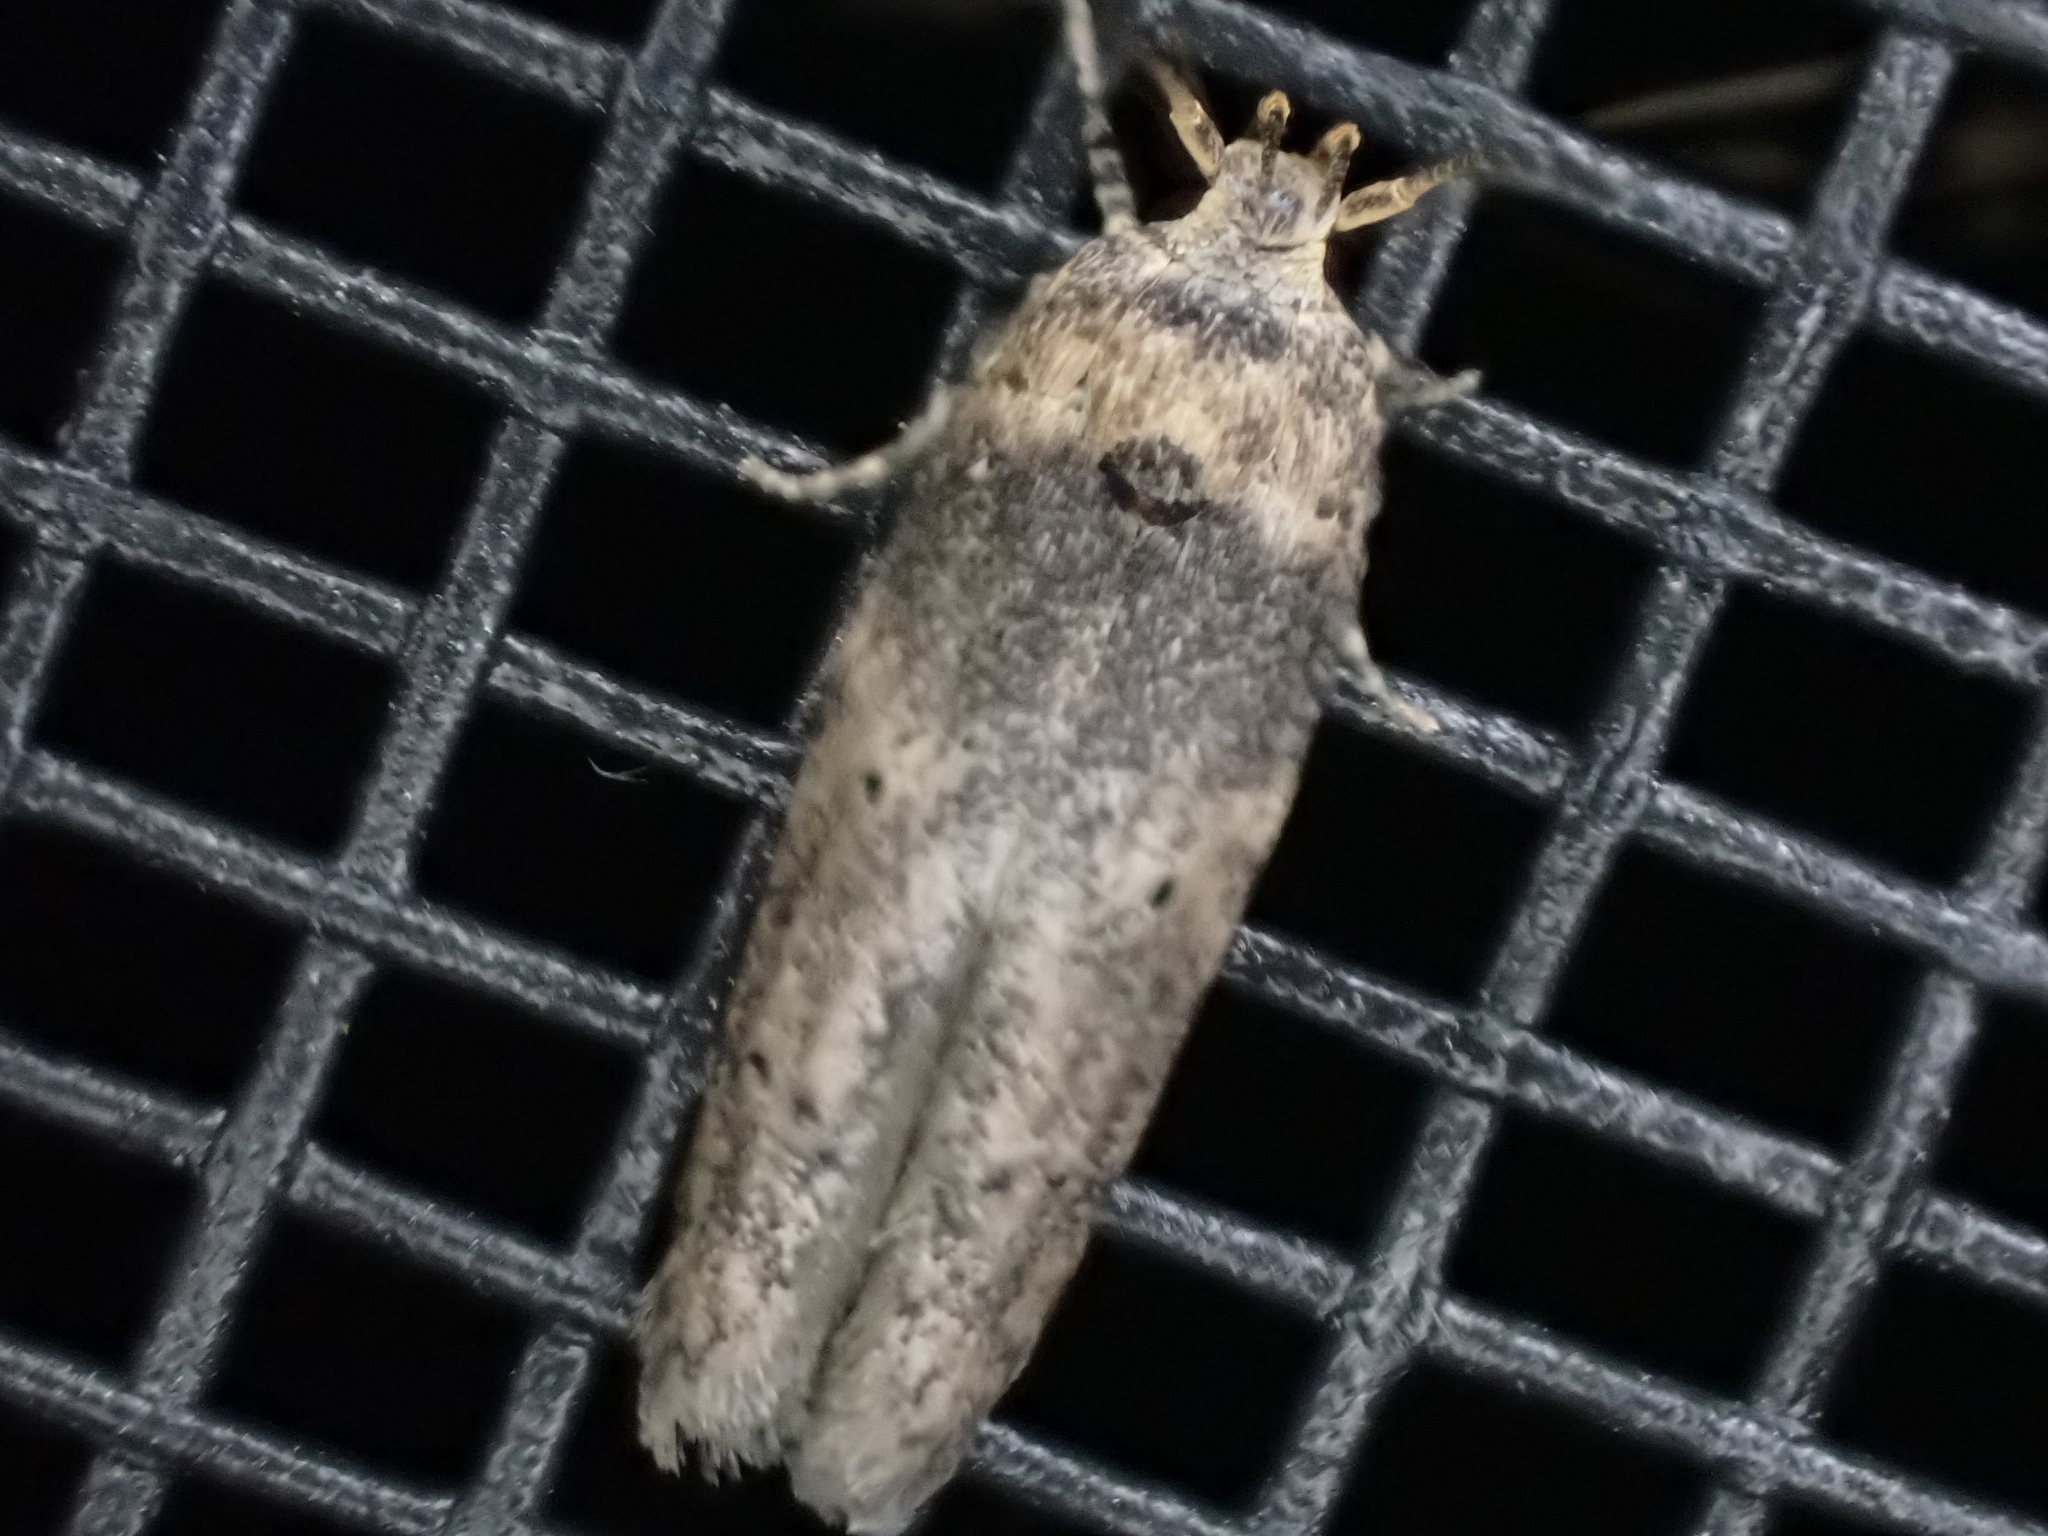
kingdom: Animalia
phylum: Arthropoda
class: Insecta
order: Lepidoptera
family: Blastobasidae
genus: Holcocera
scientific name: Holcocera crassicornella
